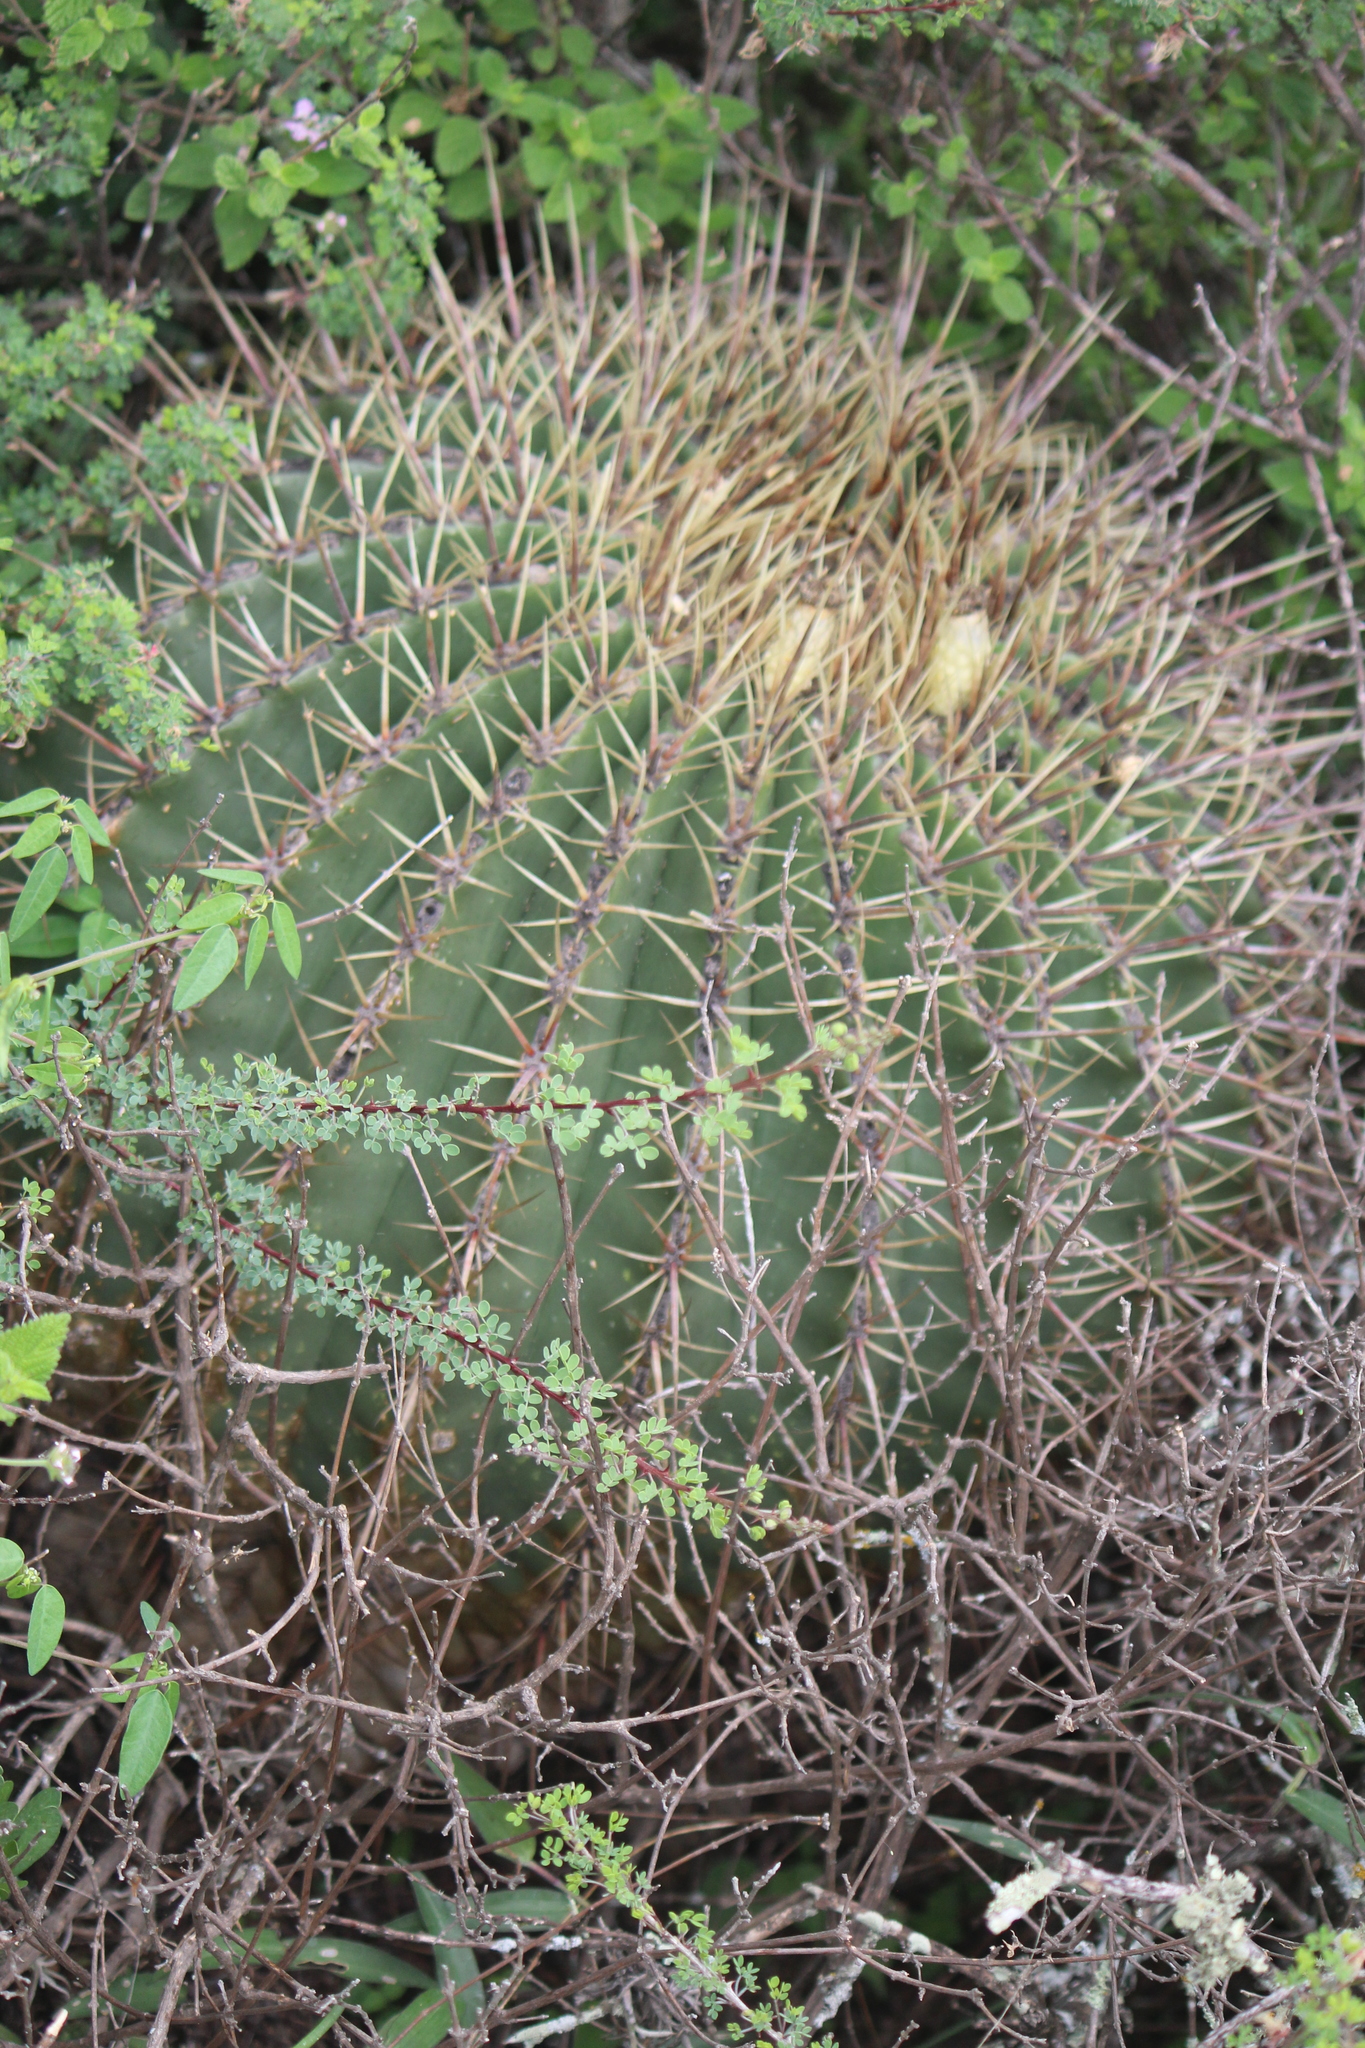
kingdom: Plantae
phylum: Tracheophyta
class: Magnoliopsida
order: Caryophyllales
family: Cactaceae
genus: Bisnaga
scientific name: Bisnaga histrix
